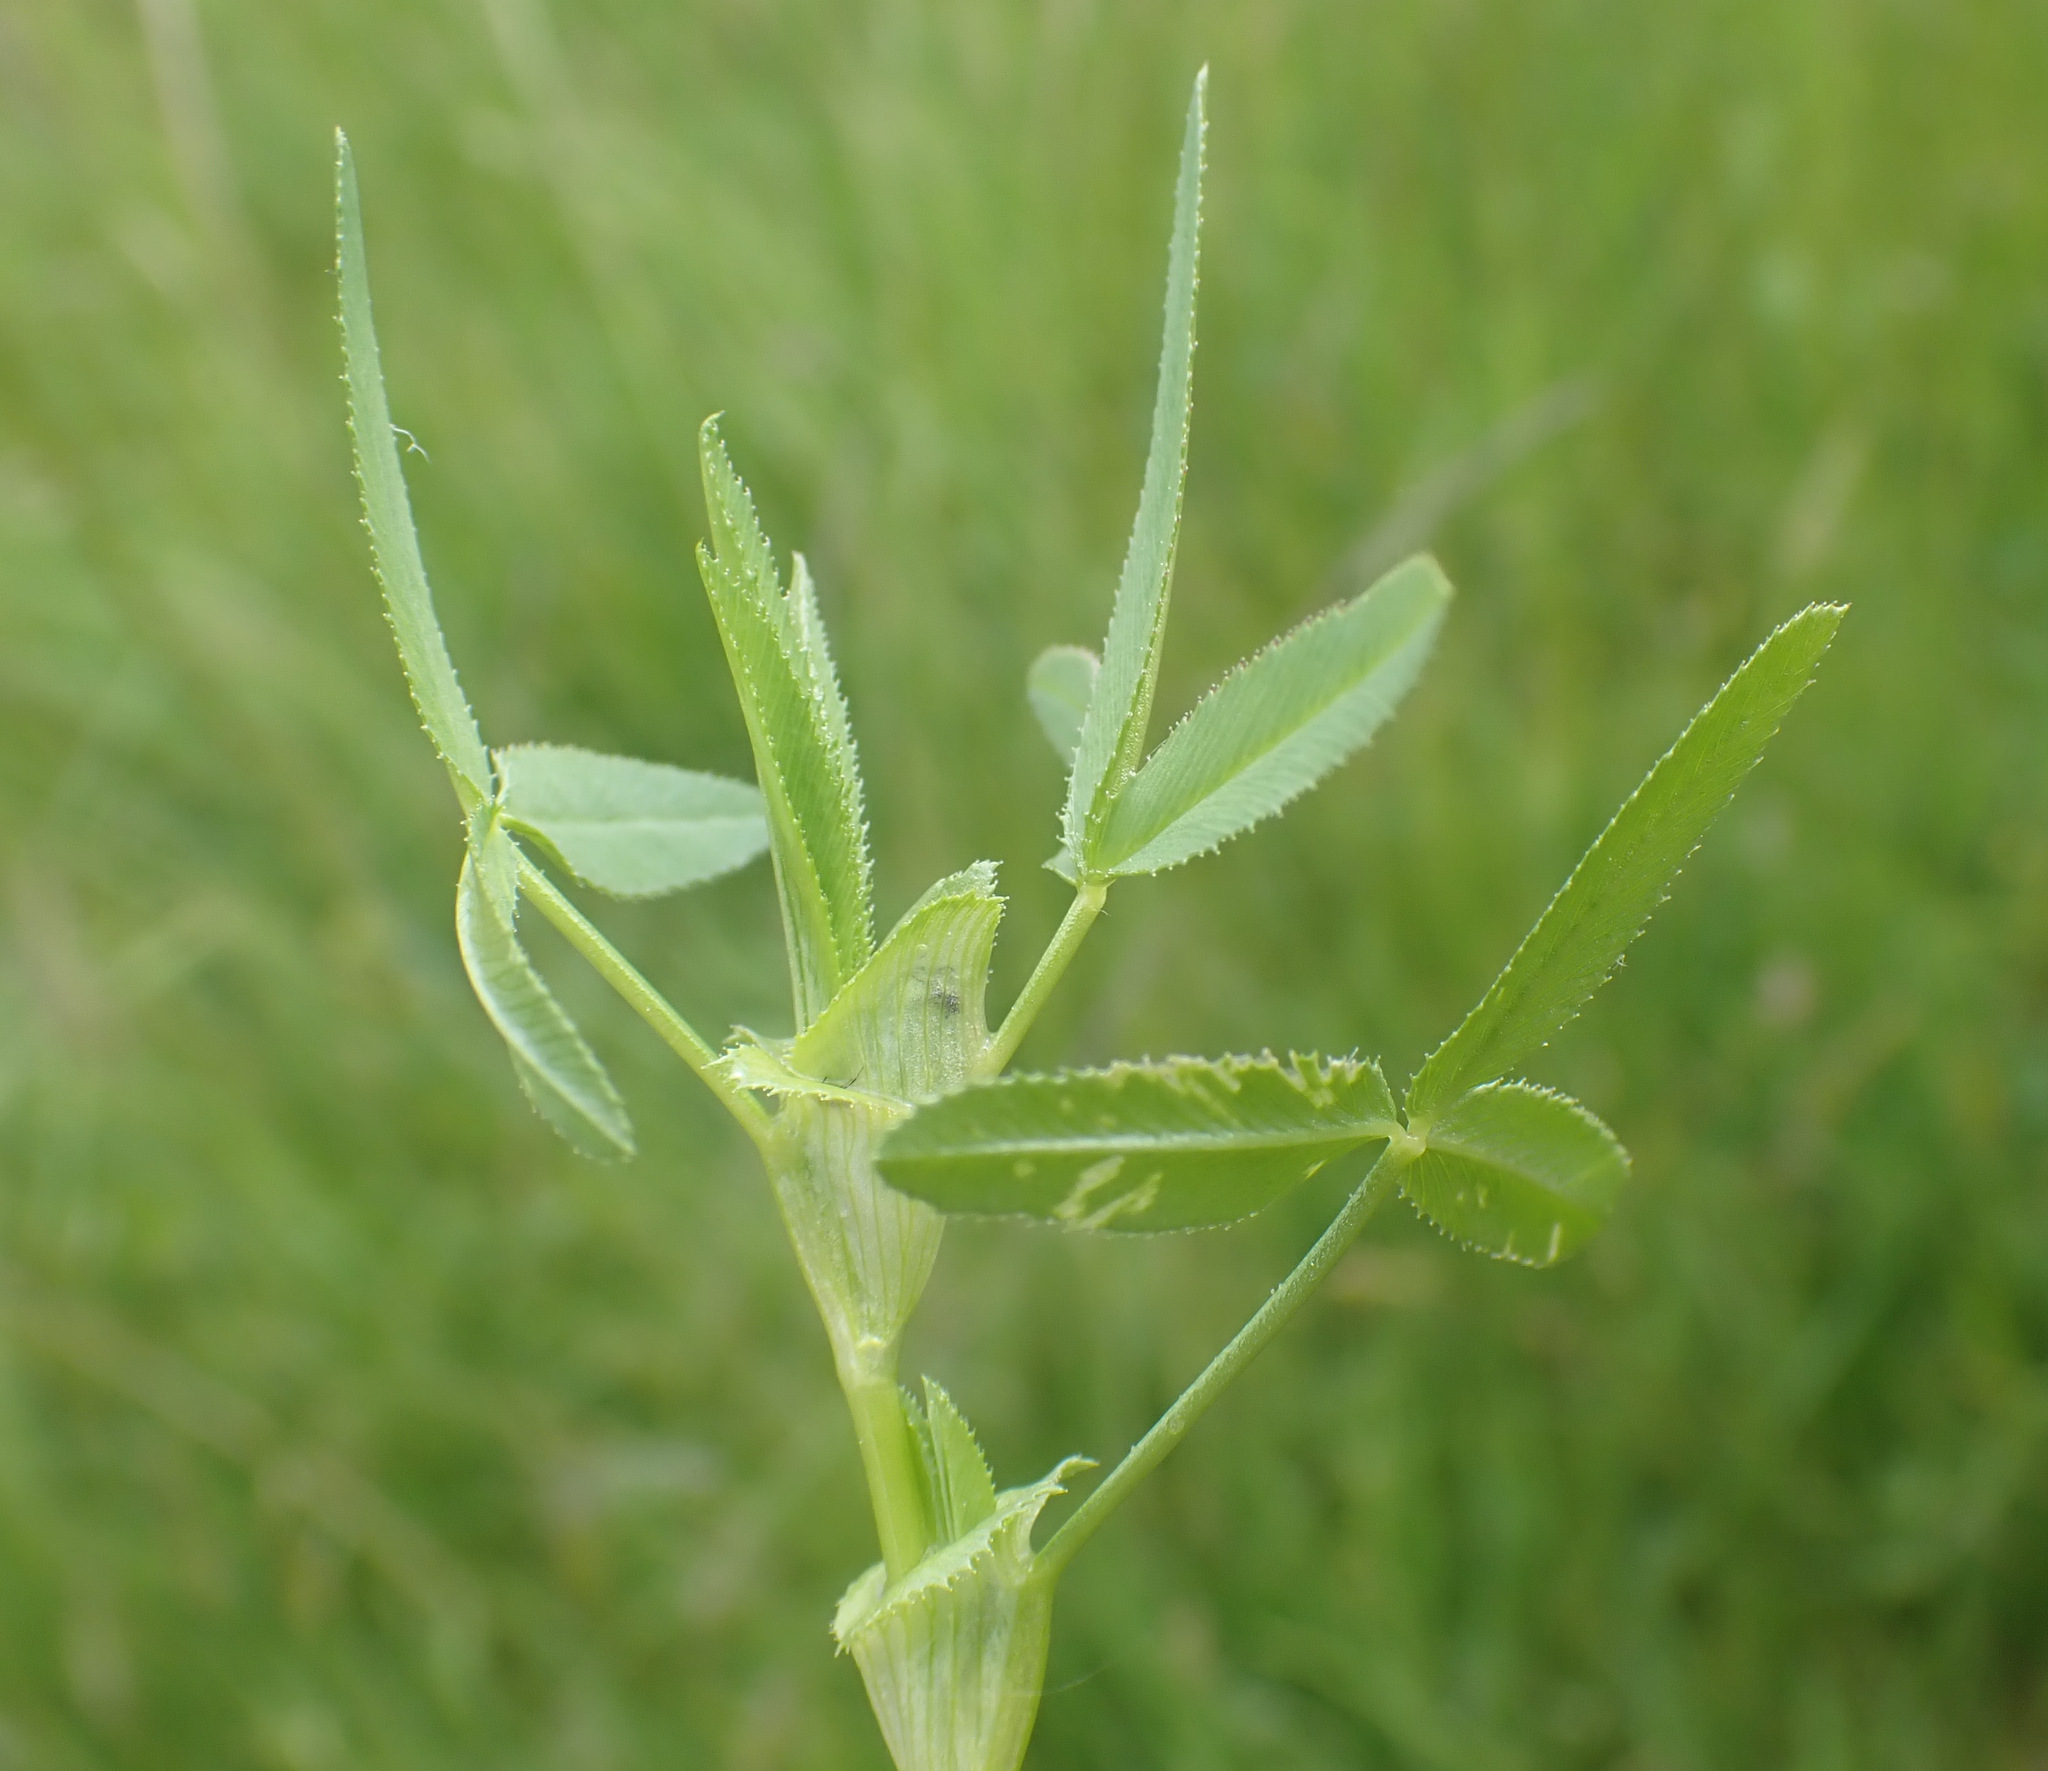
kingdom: Plantae
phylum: Tracheophyta
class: Magnoliopsida
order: Fabales
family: Fabaceae
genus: Trifolium
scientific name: Trifolium strictum
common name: Upright clover
